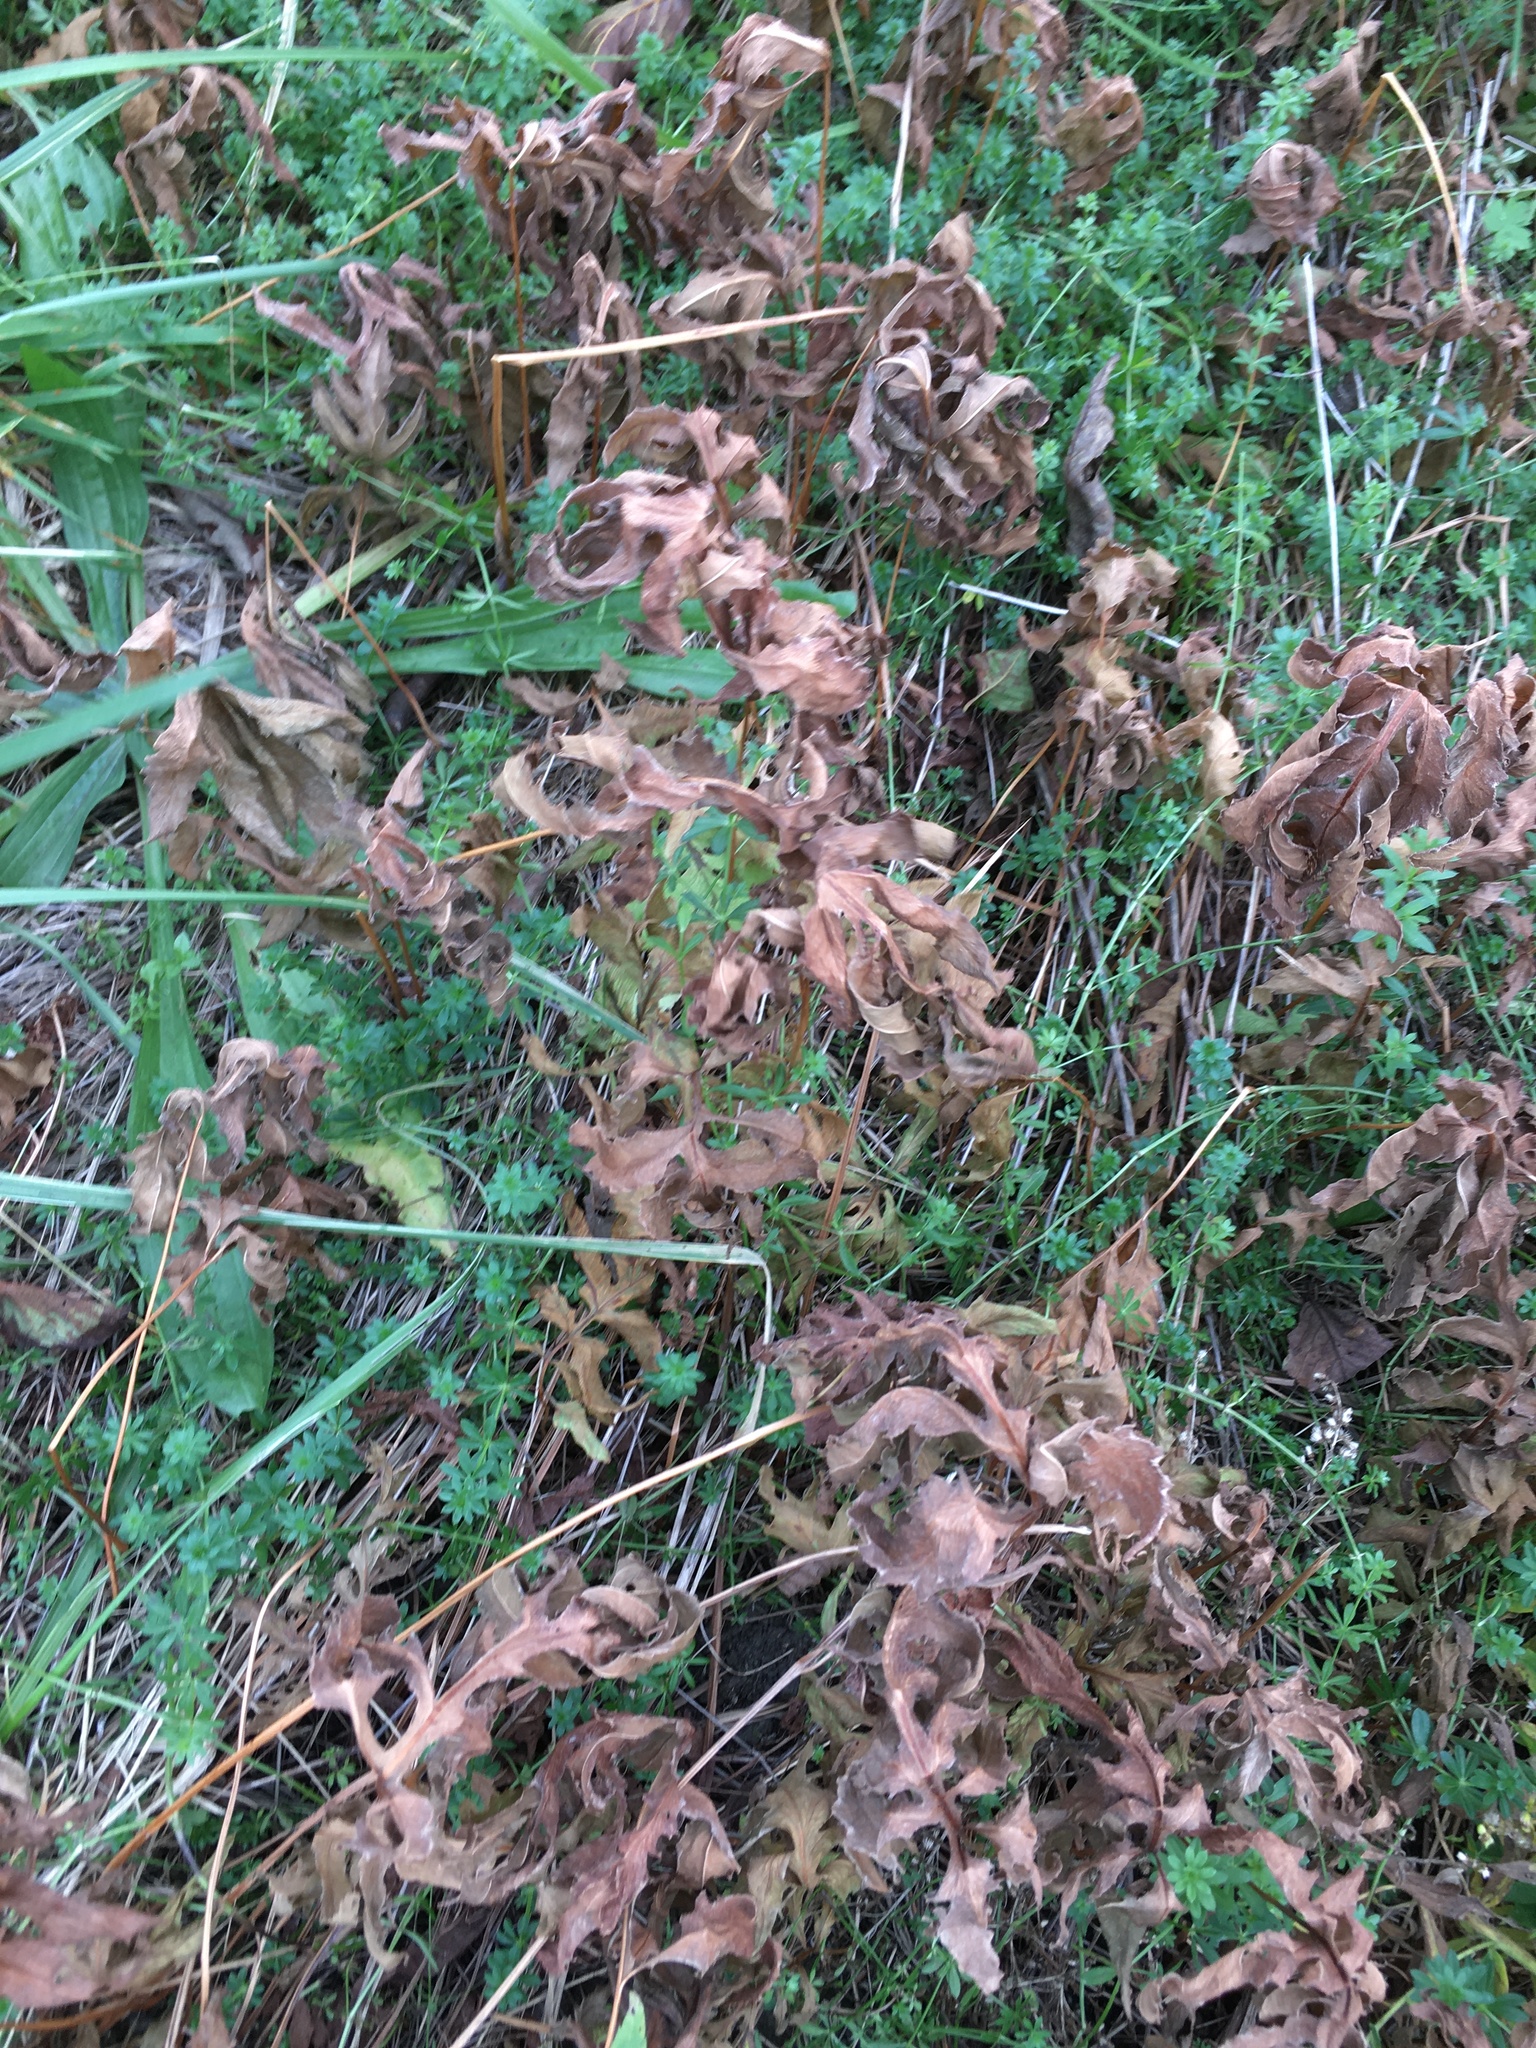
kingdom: Plantae
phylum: Tracheophyta
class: Polypodiopsida
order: Polypodiales
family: Onocleaceae
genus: Onoclea
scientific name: Onoclea sensibilis
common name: Sensitive fern
